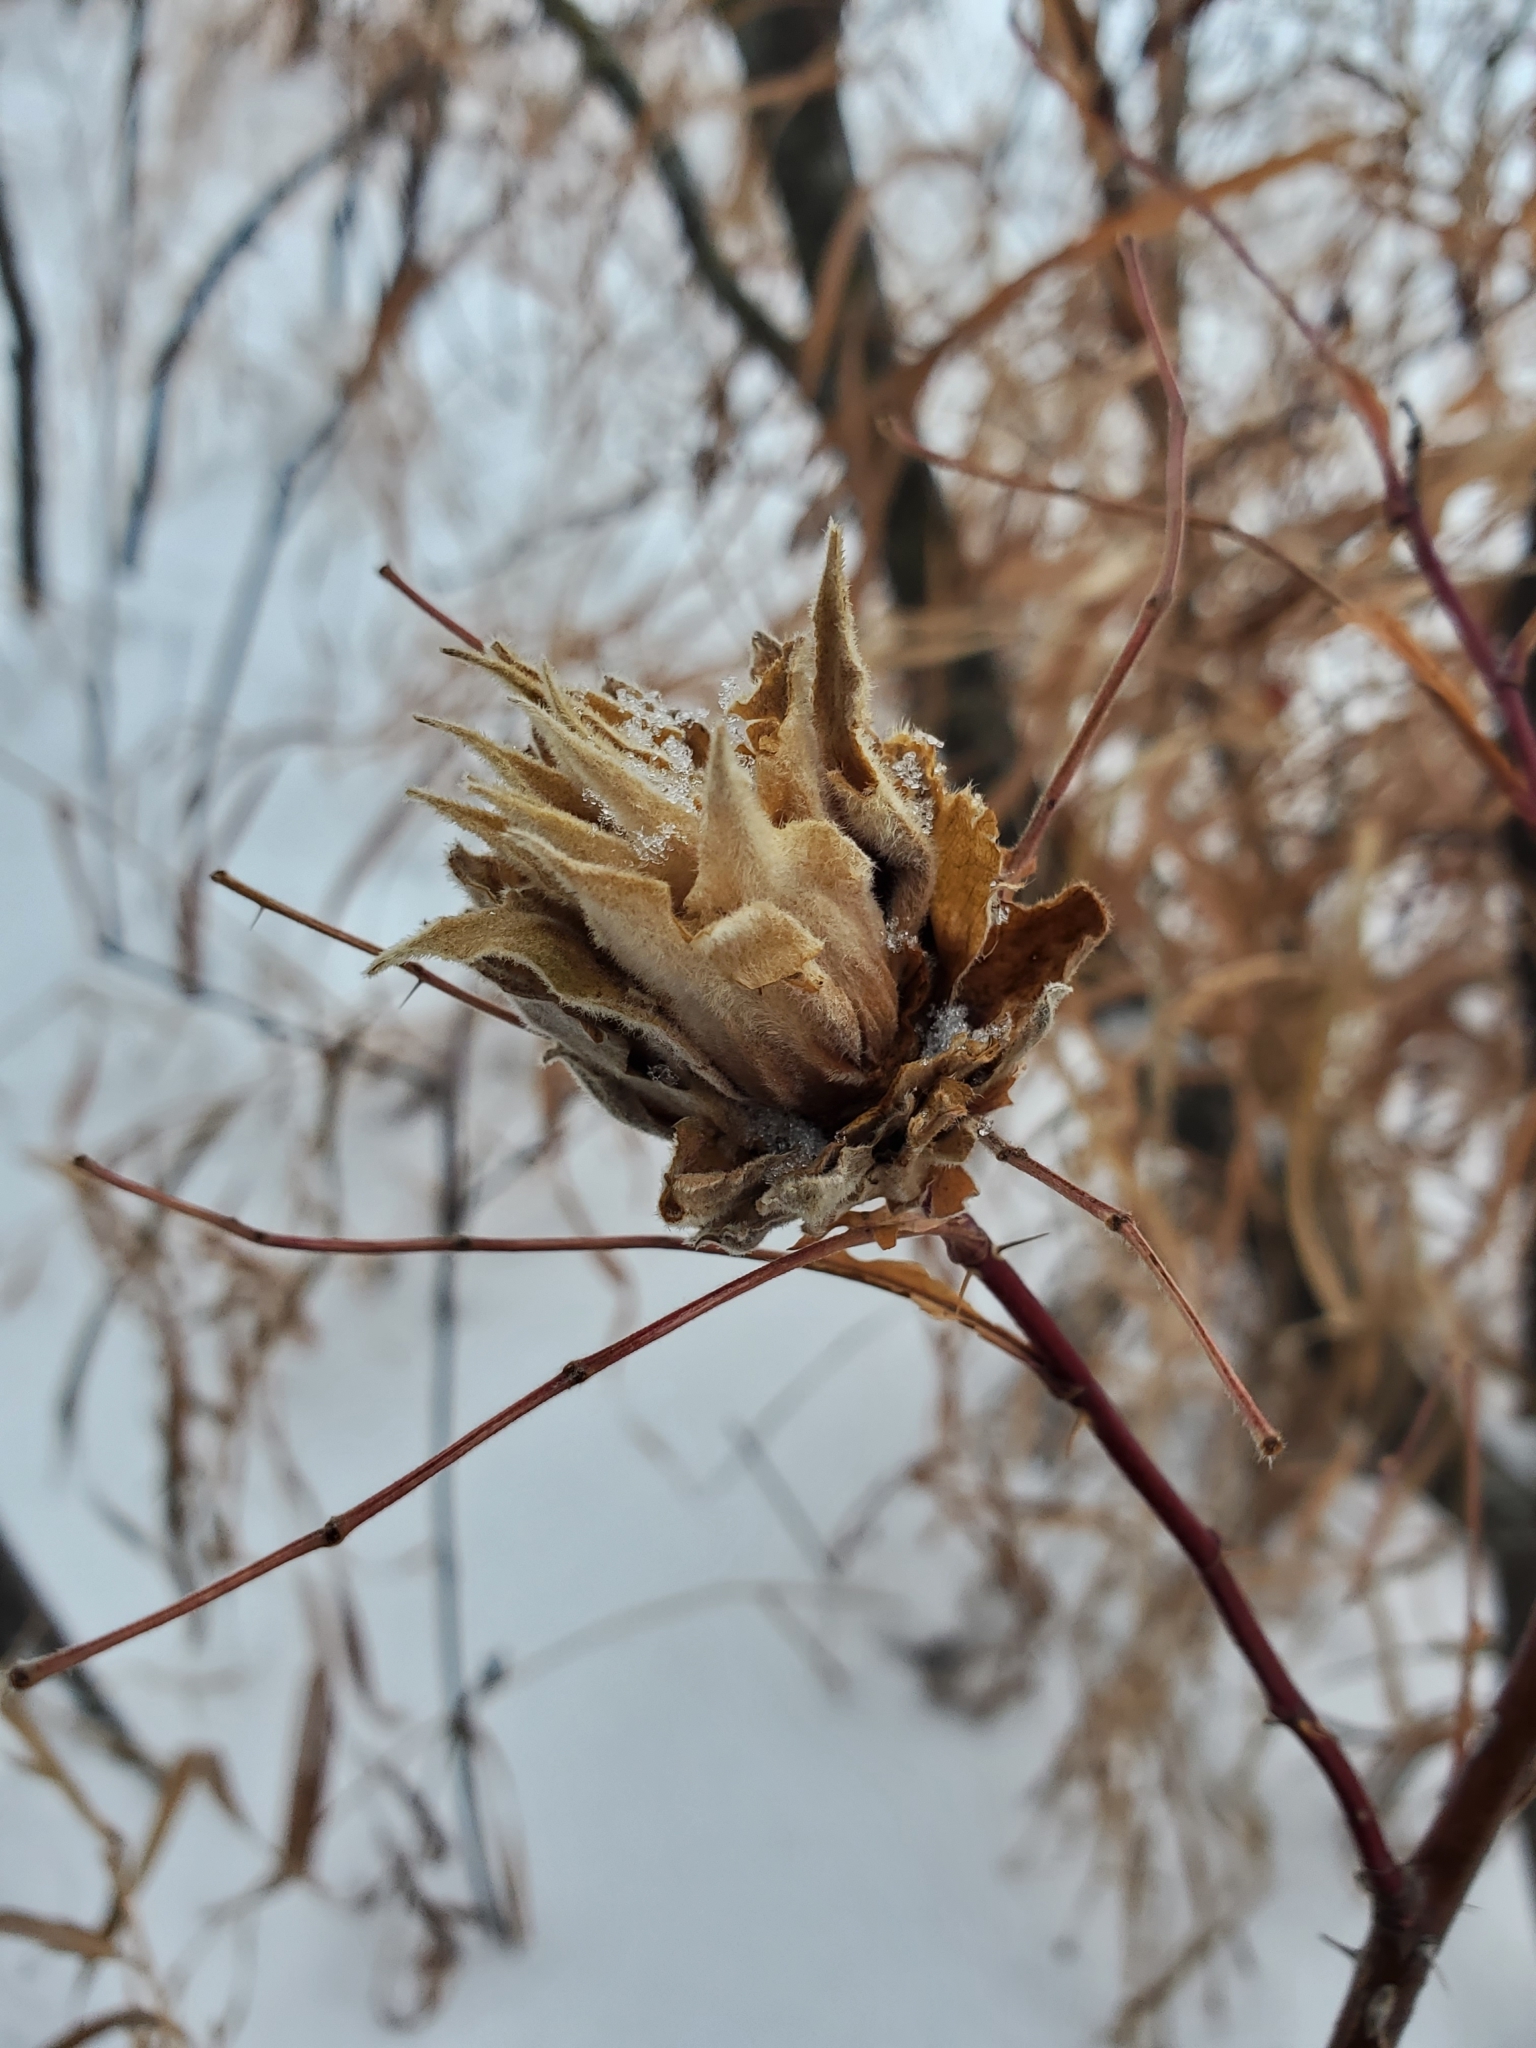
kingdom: Animalia
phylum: Arthropoda
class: Insecta
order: Diptera
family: Cecidomyiidae
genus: Rabdophaga
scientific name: Rabdophaga rosacea
